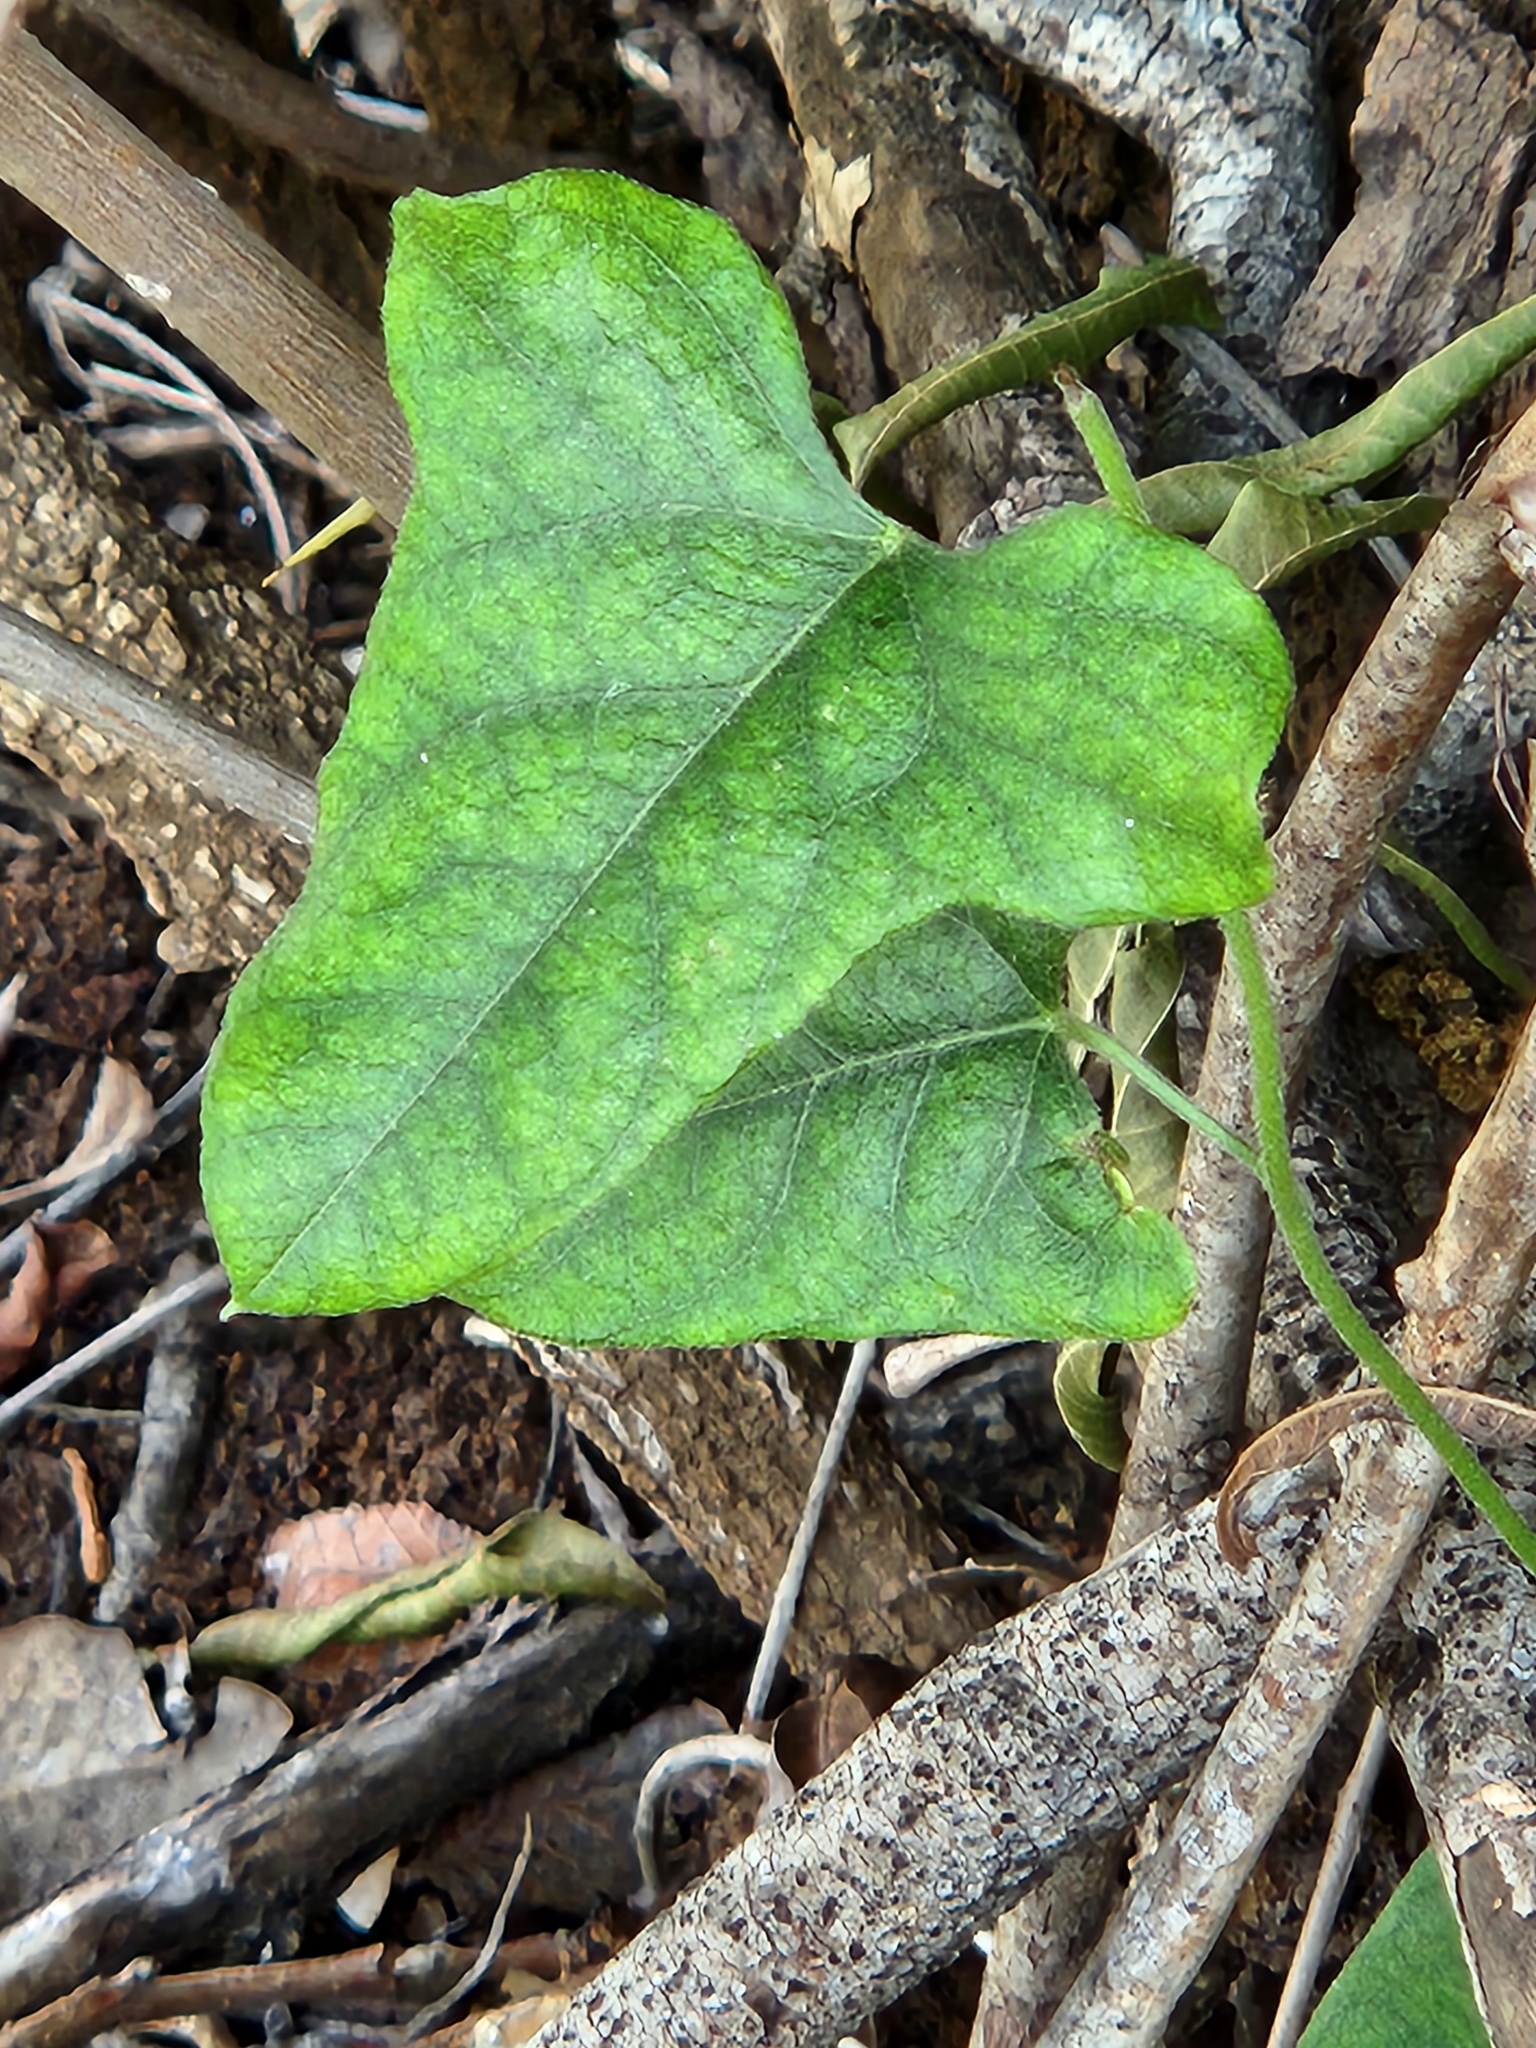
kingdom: Plantae
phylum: Tracheophyta
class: Magnoliopsida
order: Ranunculales
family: Menispermaceae
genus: Cocculus
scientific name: Cocculus carolinus
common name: Carolina moonseed
